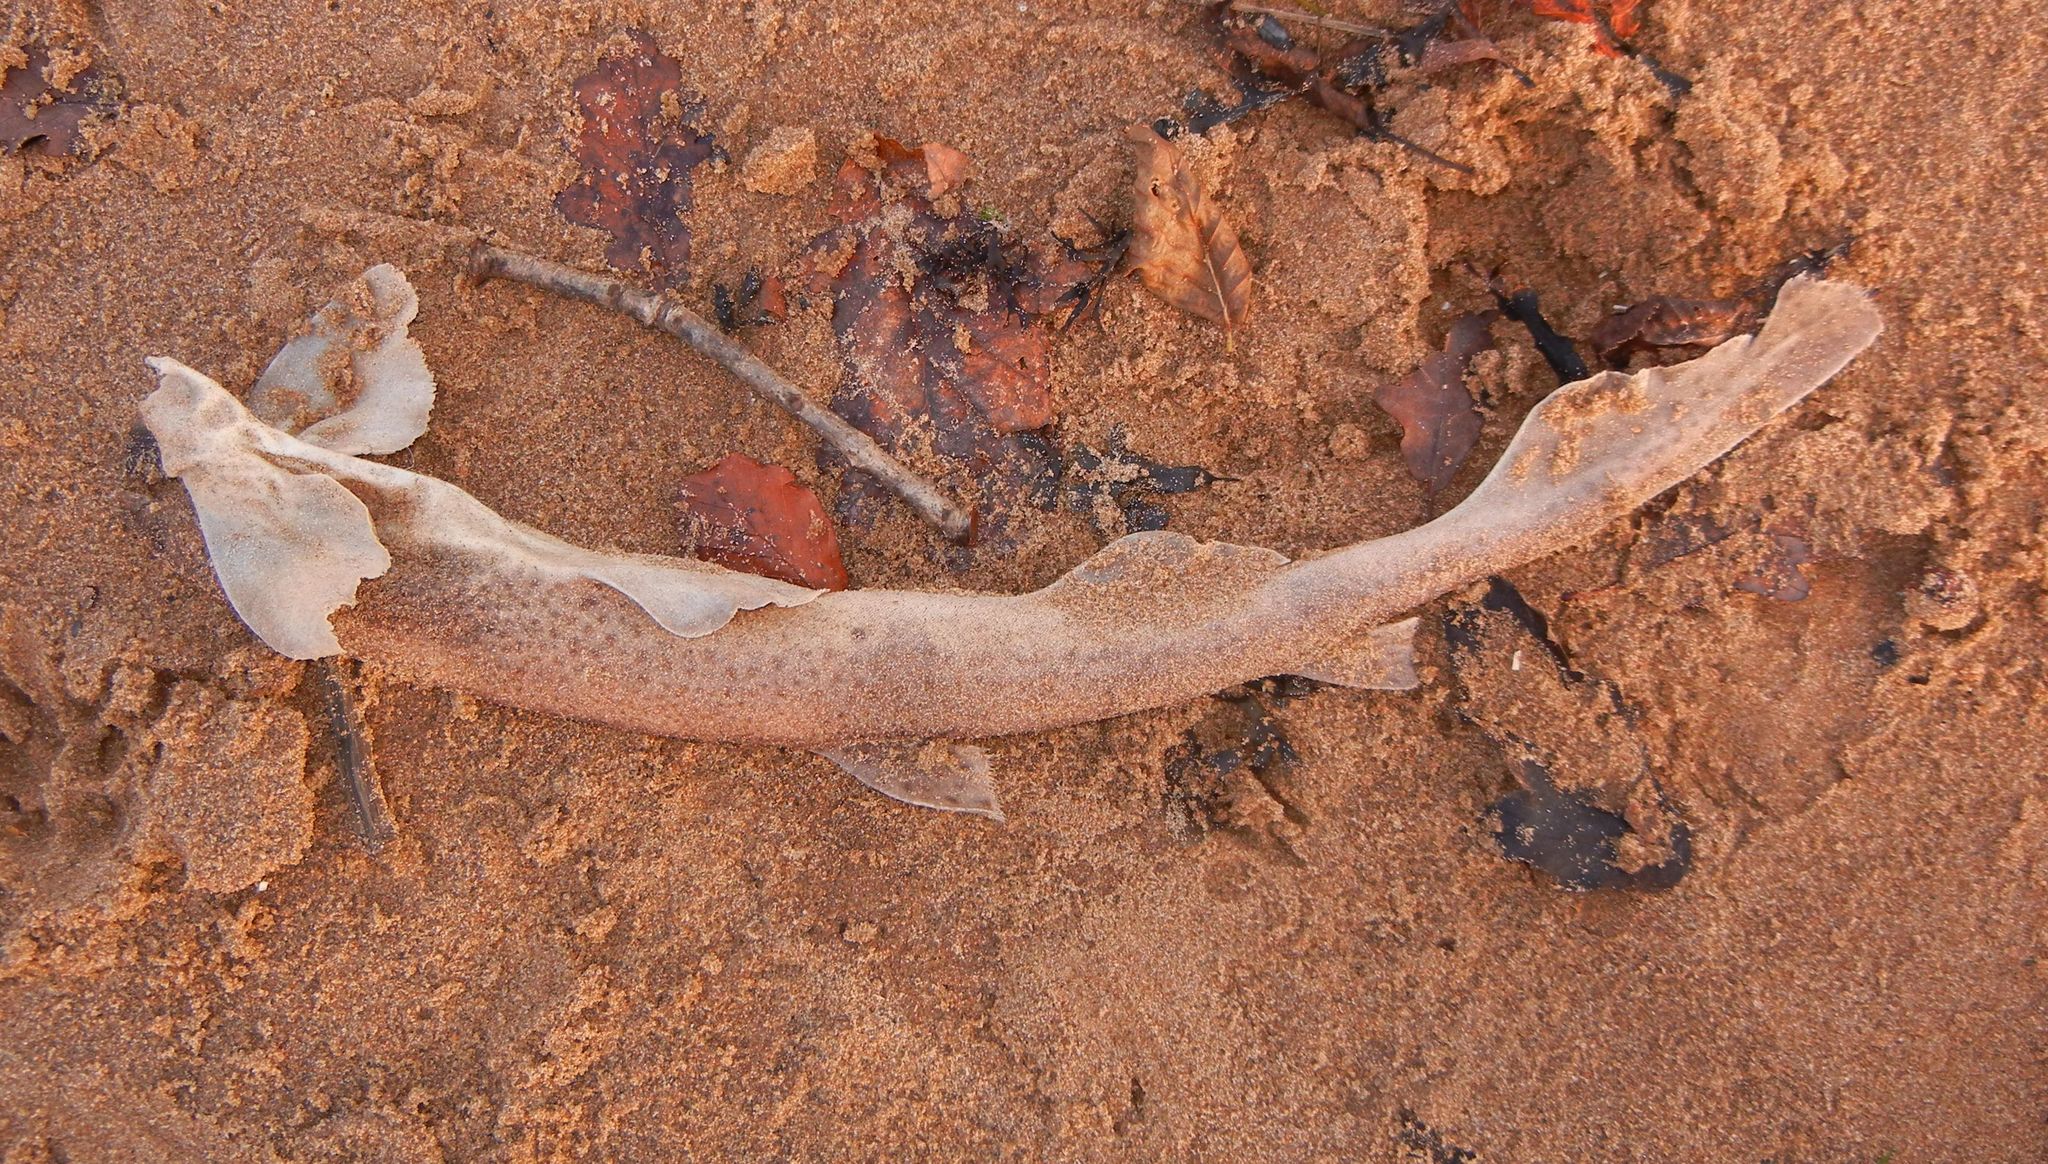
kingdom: Animalia
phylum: Chordata
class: Elasmobranchii
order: Carcharhiniformes
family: Scyliorhinidae
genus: Scyliorhinus
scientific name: Scyliorhinus canicula
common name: Lesser spotted dogfish
